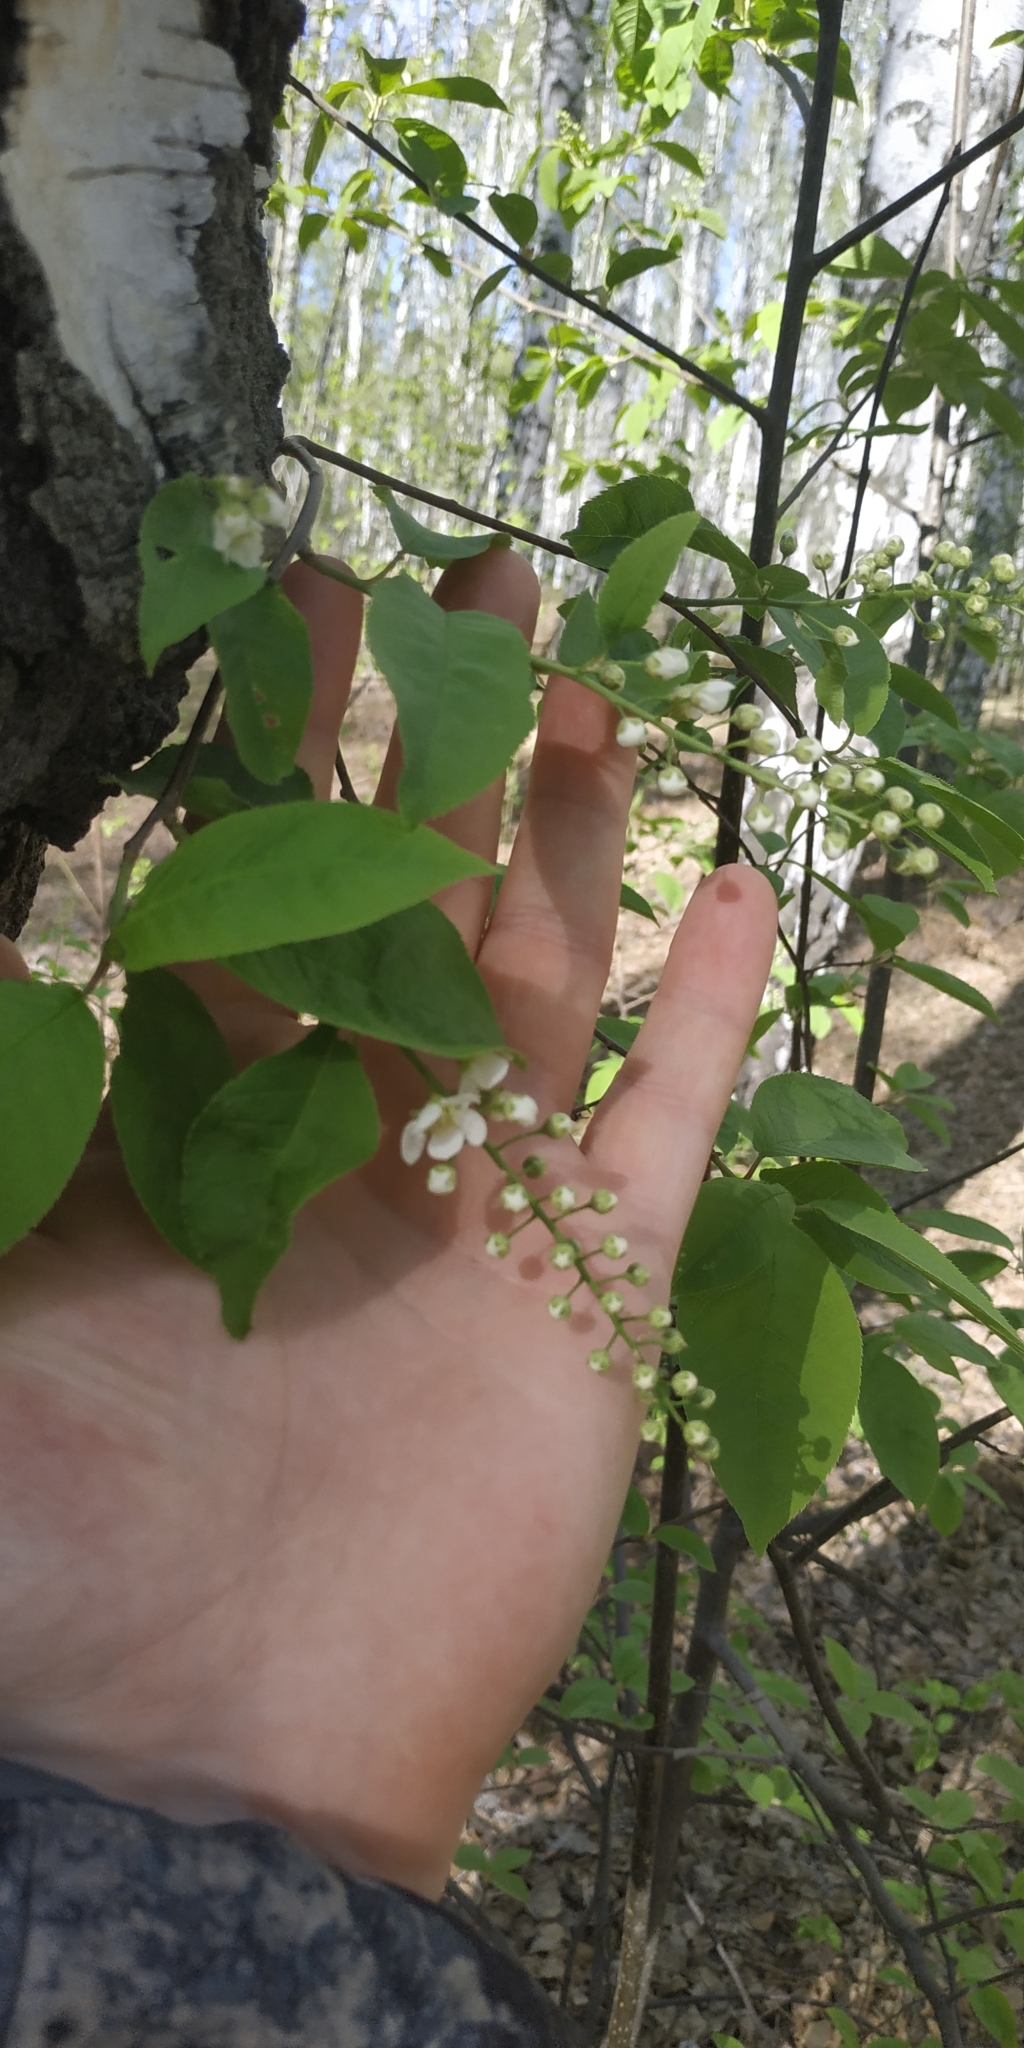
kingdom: Plantae
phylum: Tracheophyta
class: Magnoliopsida
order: Rosales
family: Rosaceae
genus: Prunus
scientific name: Prunus padus
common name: Bird cherry
